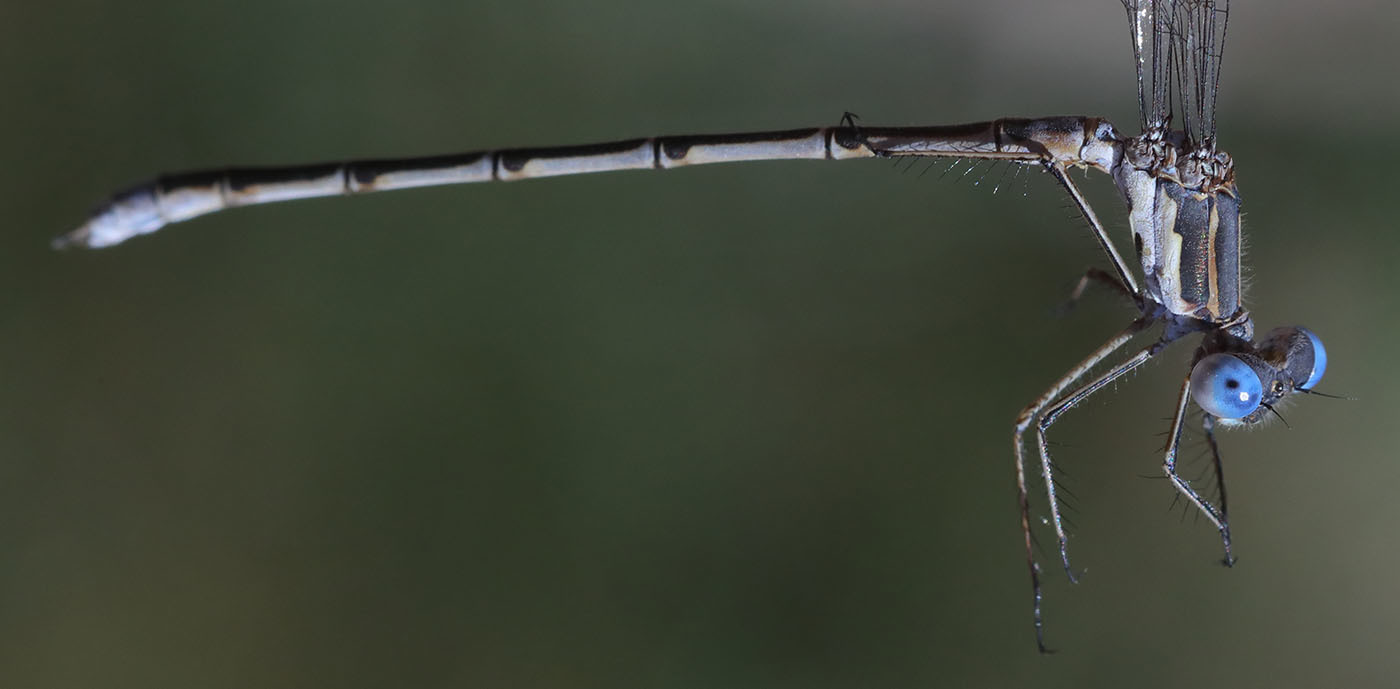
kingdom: Animalia
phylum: Arthropoda
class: Insecta
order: Odonata
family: Lestidae
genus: Lestes
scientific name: Lestes congener
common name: Spotted spreadwing
